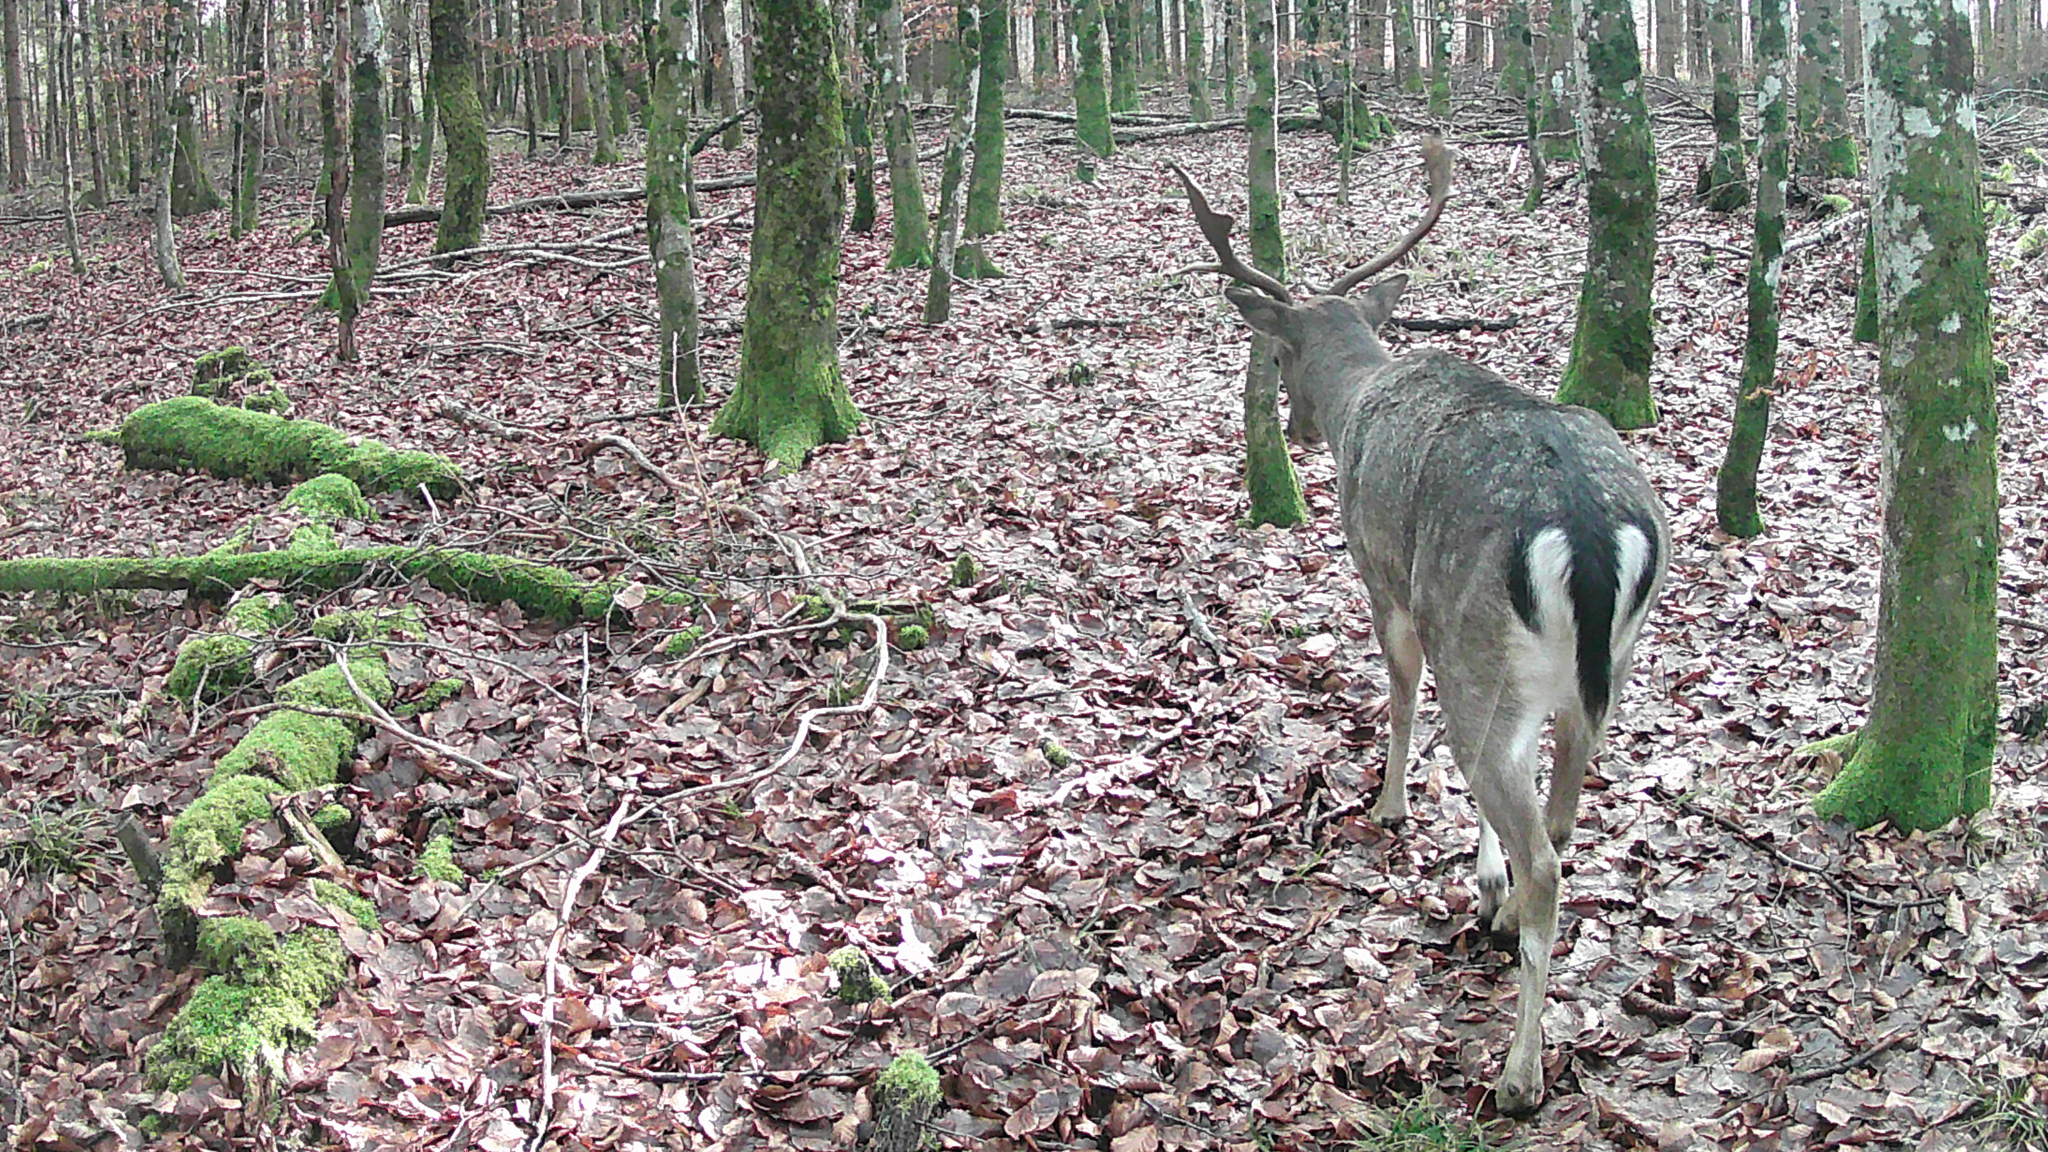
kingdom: Animalia
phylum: Chordata
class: Mammalia
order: Artiodactyla
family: Cervidae
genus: Dama
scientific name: Dama dama
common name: Fallow deer
